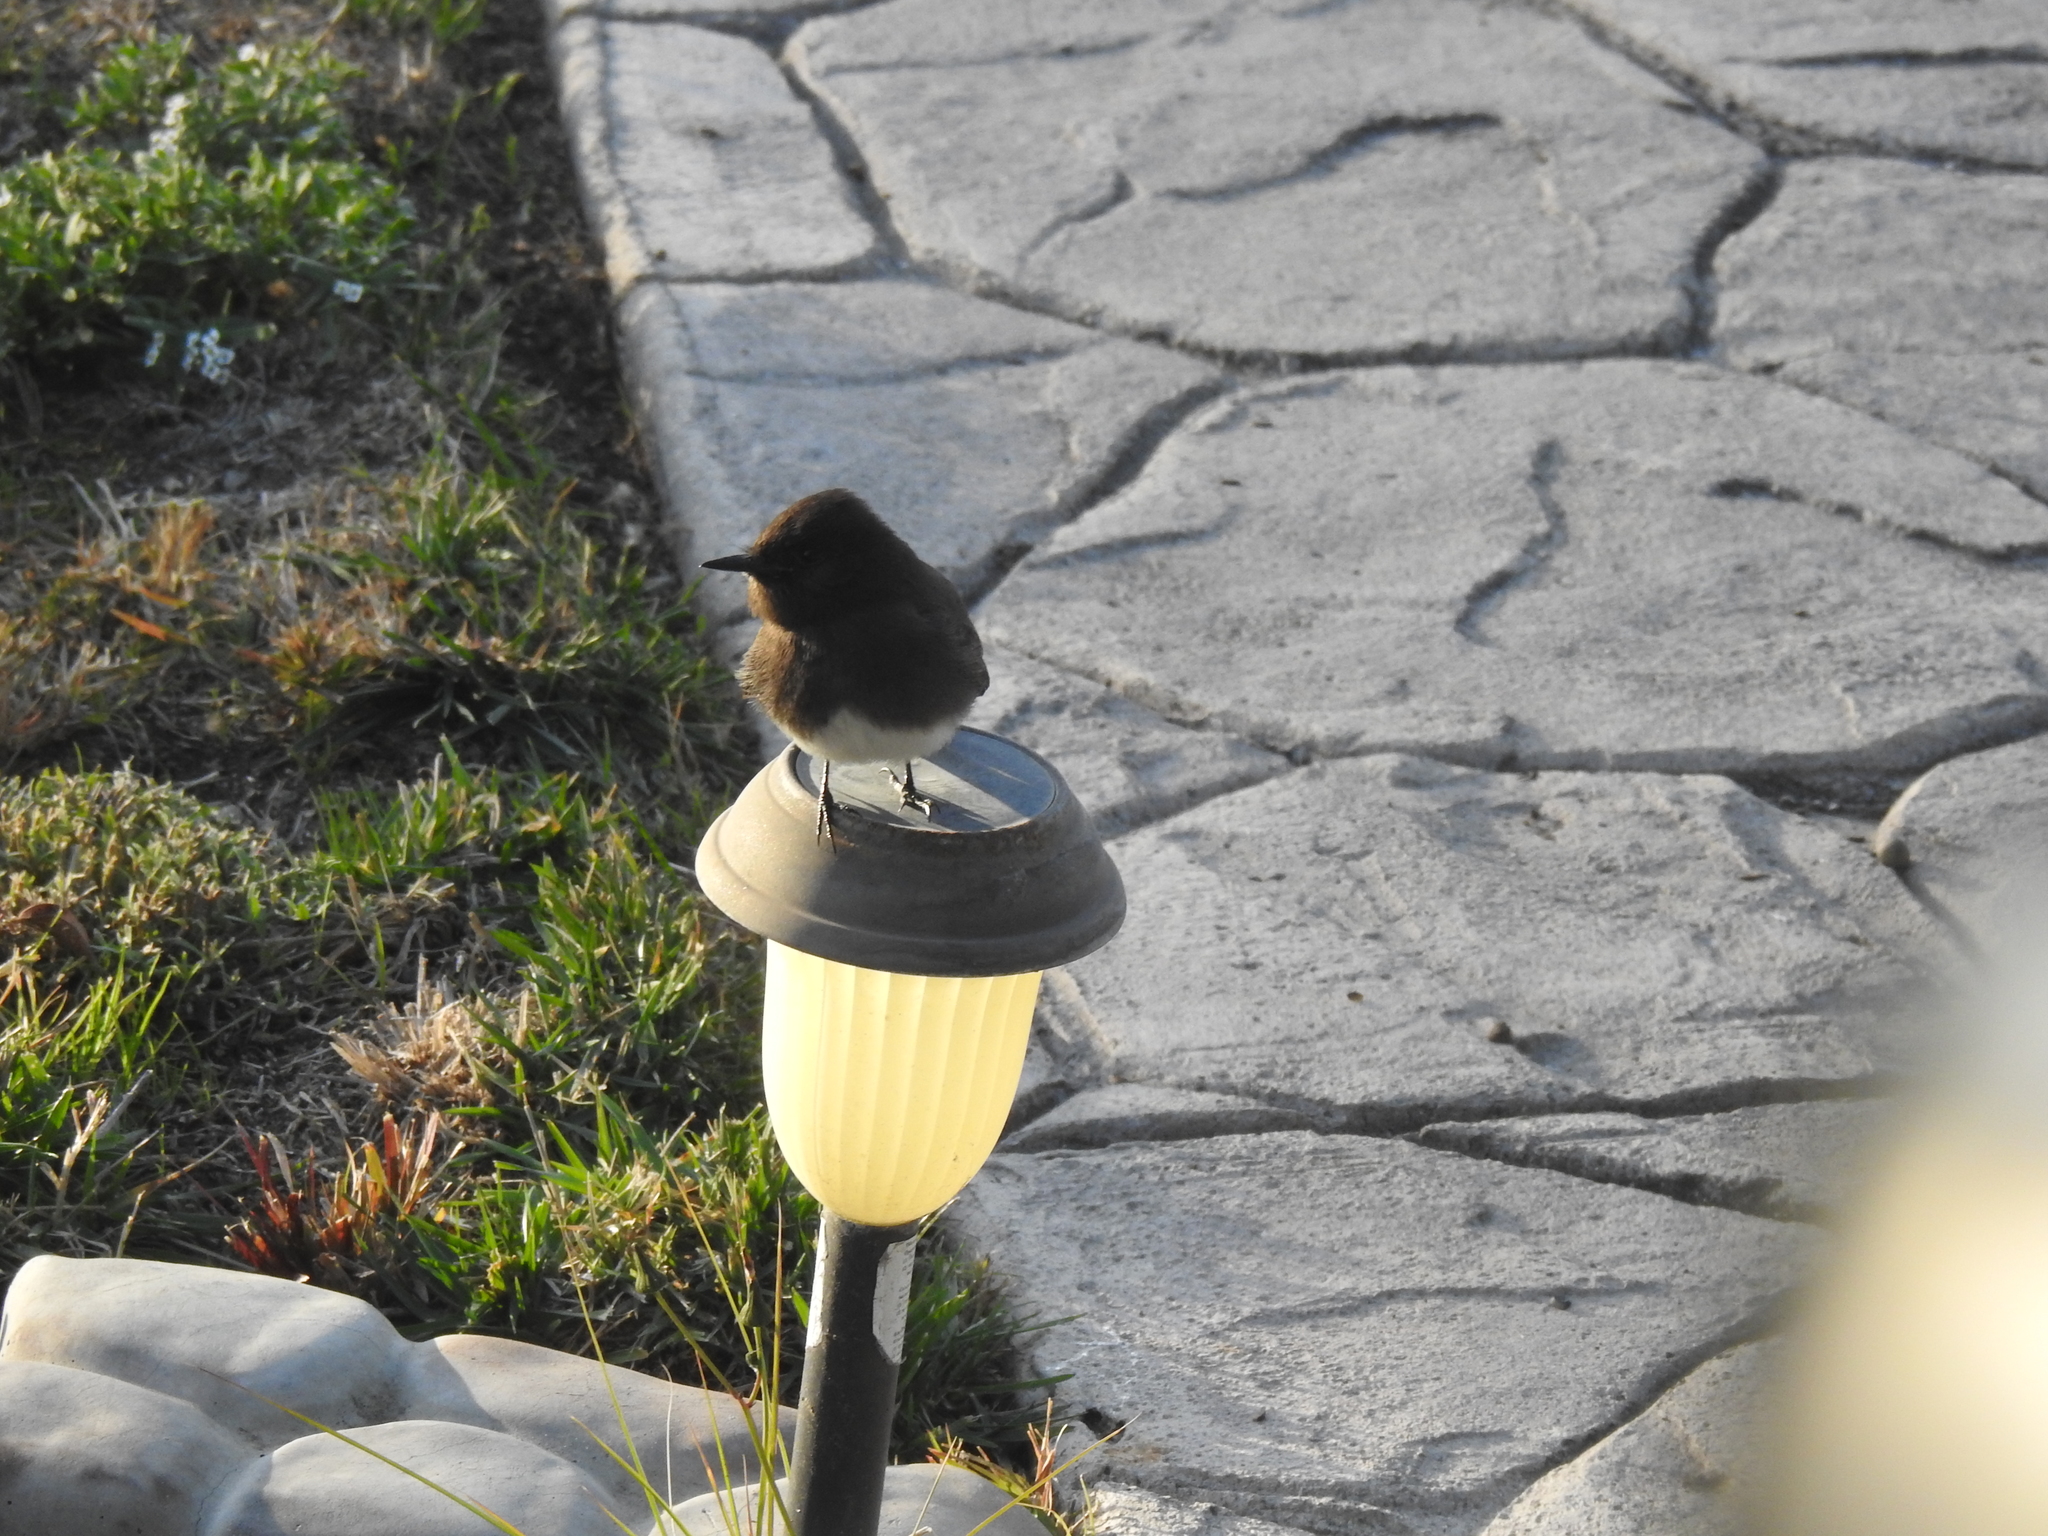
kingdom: Animalia
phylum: Chordata
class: Aves
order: Passeriformes
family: Tyrannidae
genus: Sayornis
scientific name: Sayornis nigricans
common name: Black phoebe
